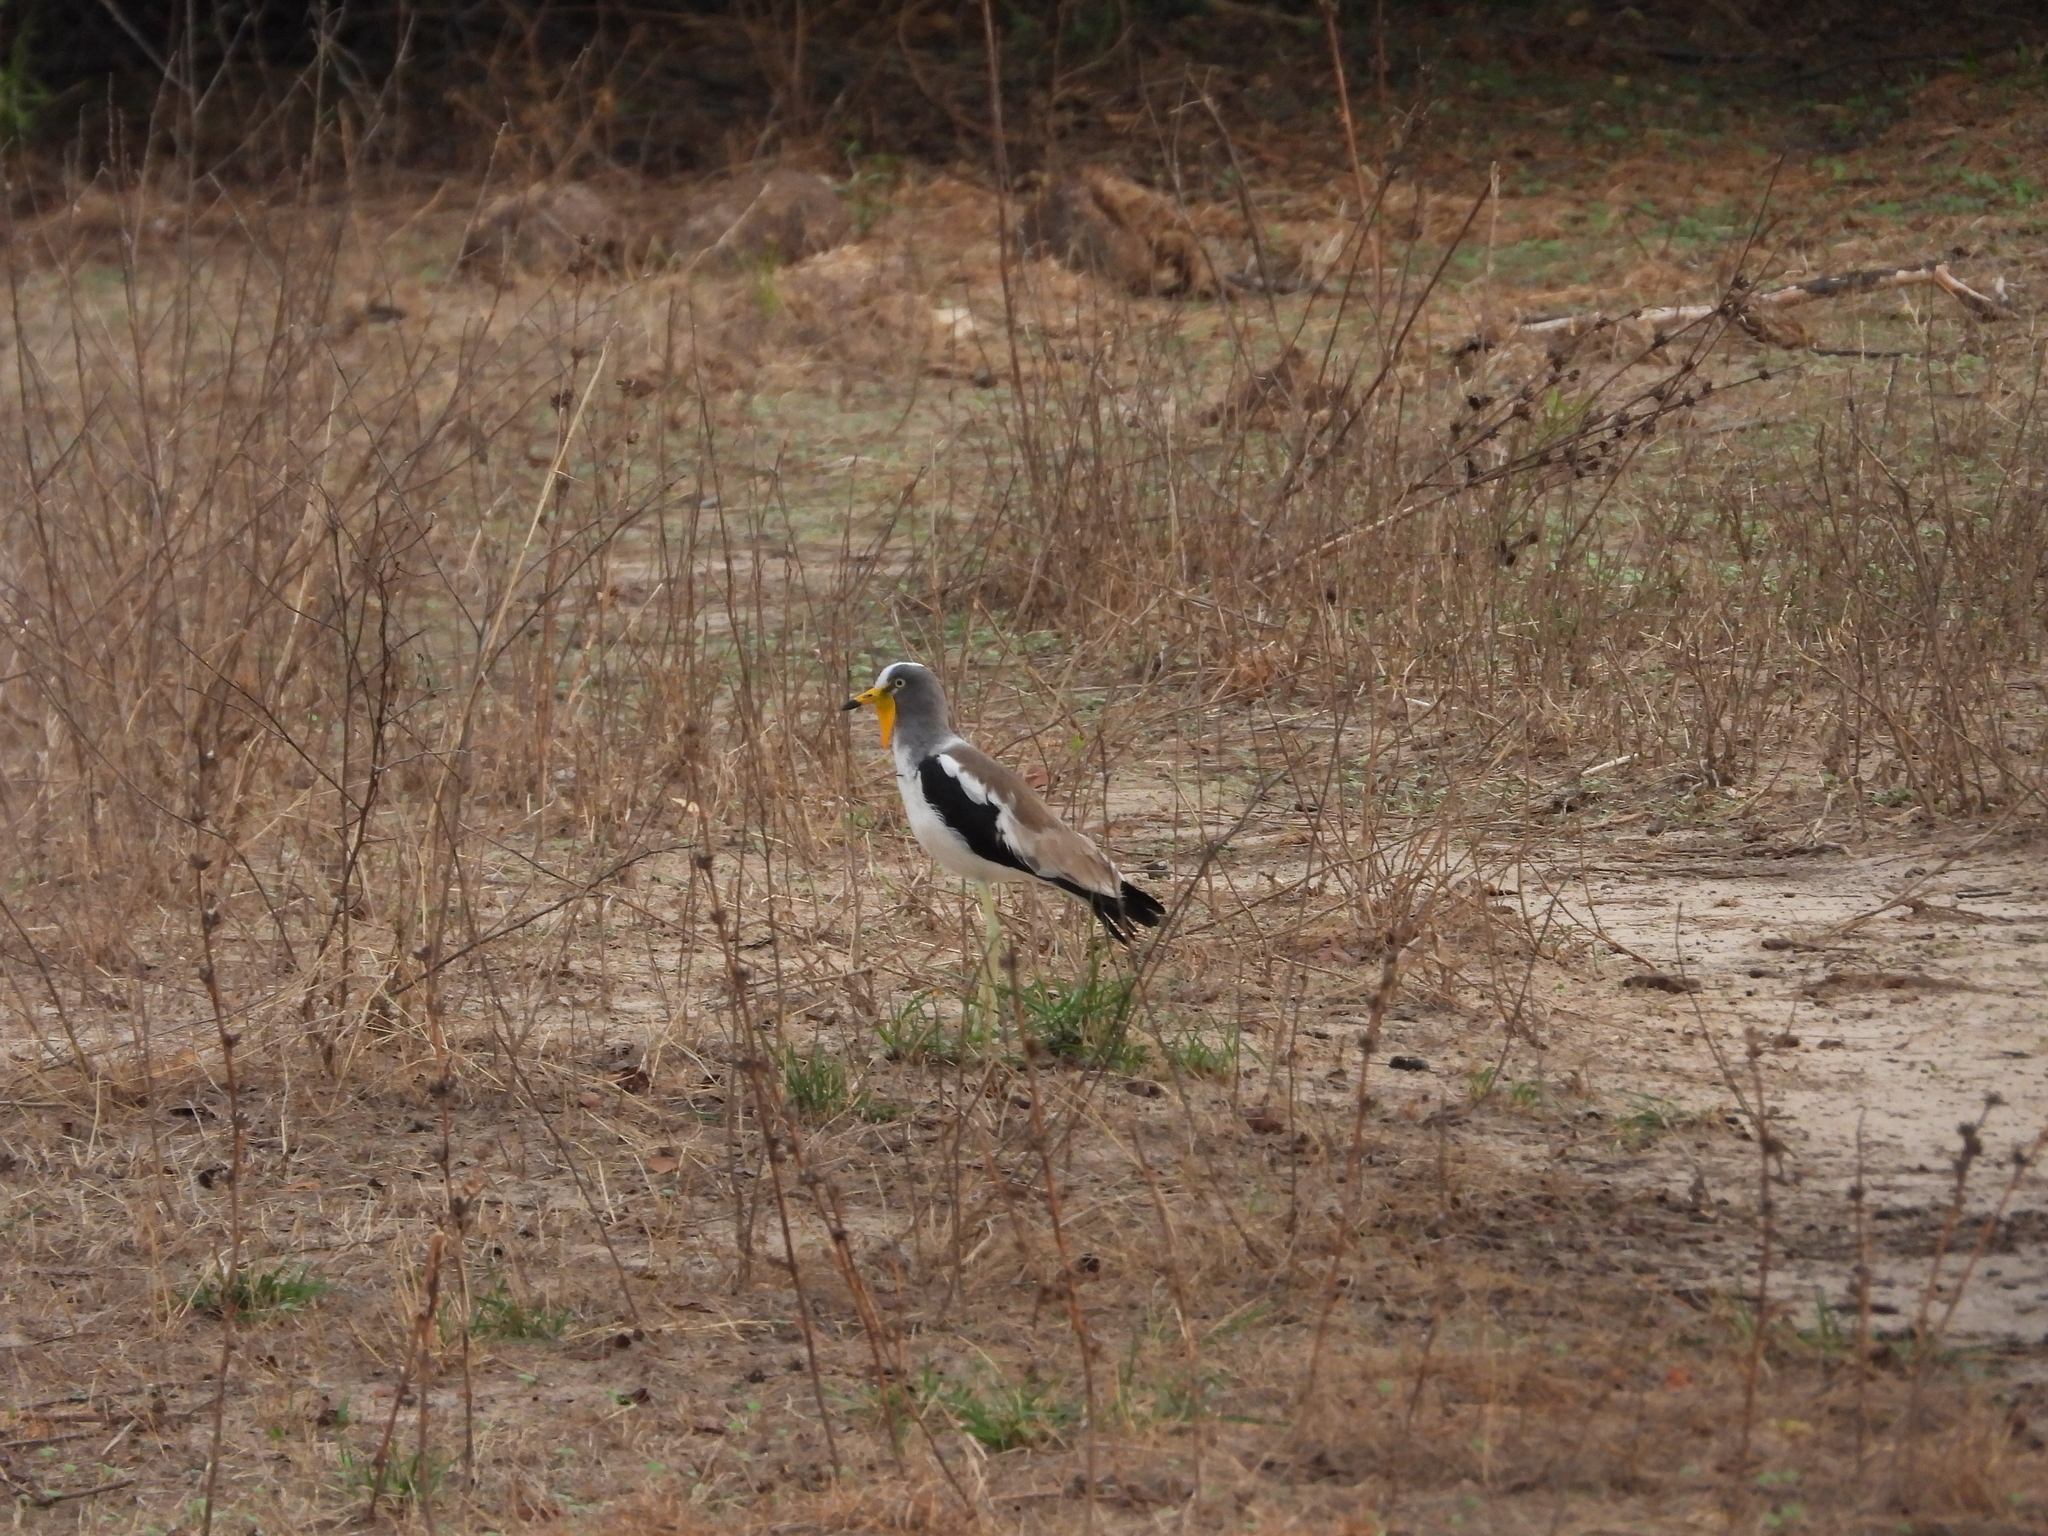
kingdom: Animalia
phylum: Chordata
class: Aves
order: Charadriiformes
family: Charadriidae
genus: Vanellus
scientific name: Vanellus albiceps
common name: White-crowned lapwing
